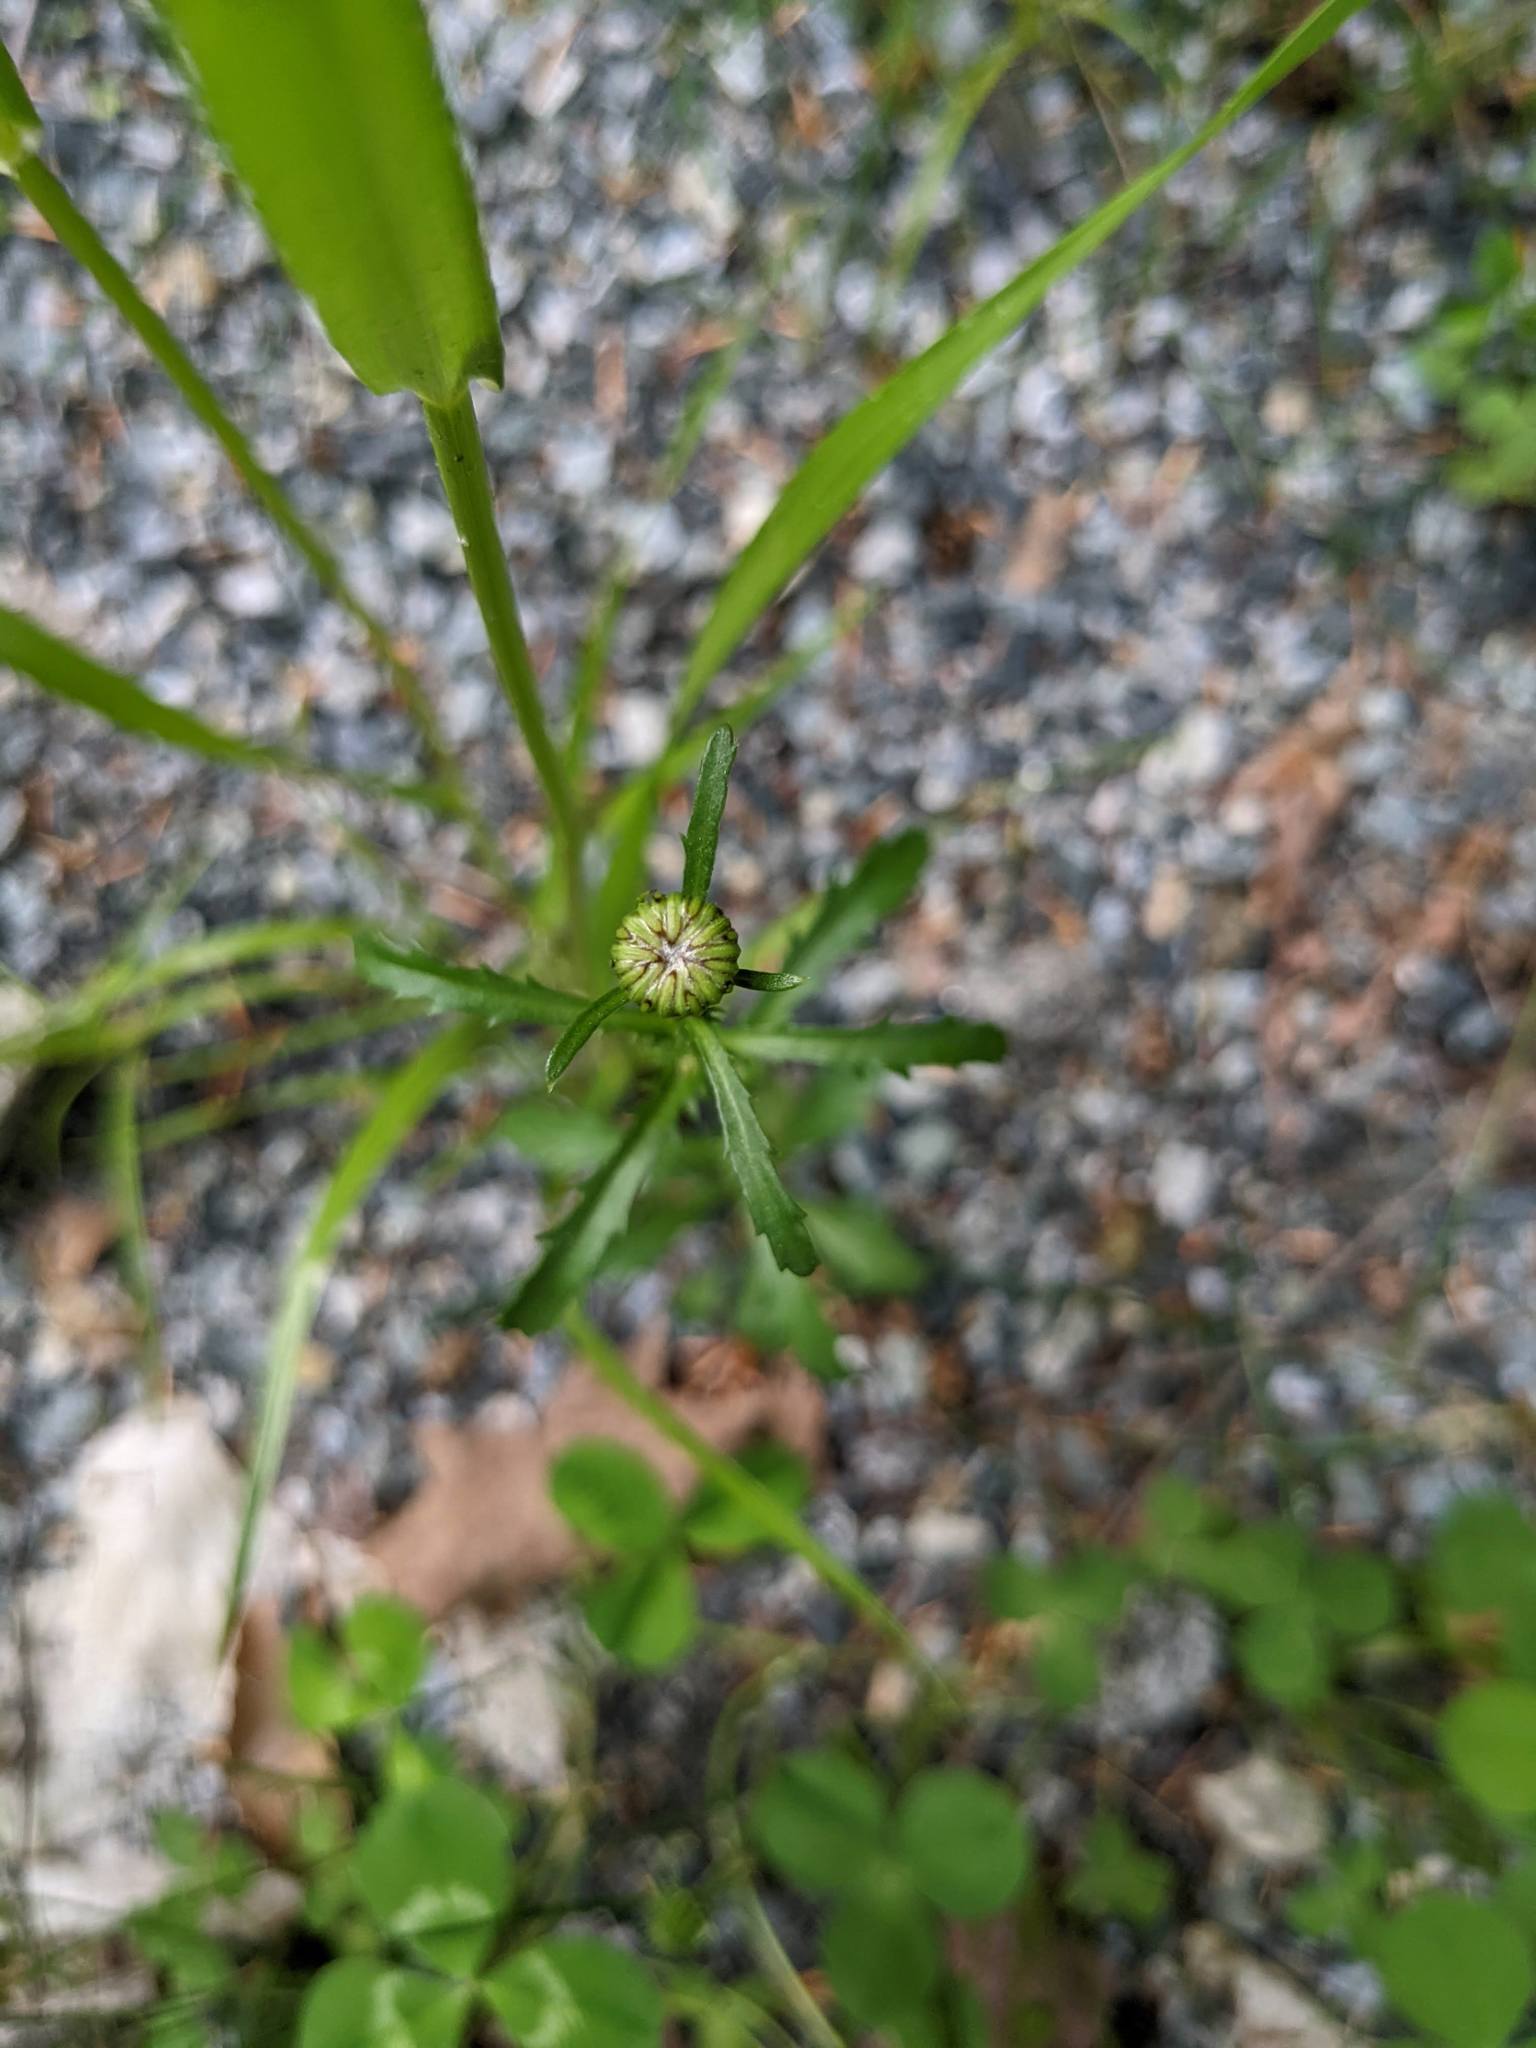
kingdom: Plantae
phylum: Tracheophyta
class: Magnoliopsida
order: Asterales
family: Asteraceae
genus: Leucanthemum
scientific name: Leucanthemum vulgare
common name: Oxeye daisy
